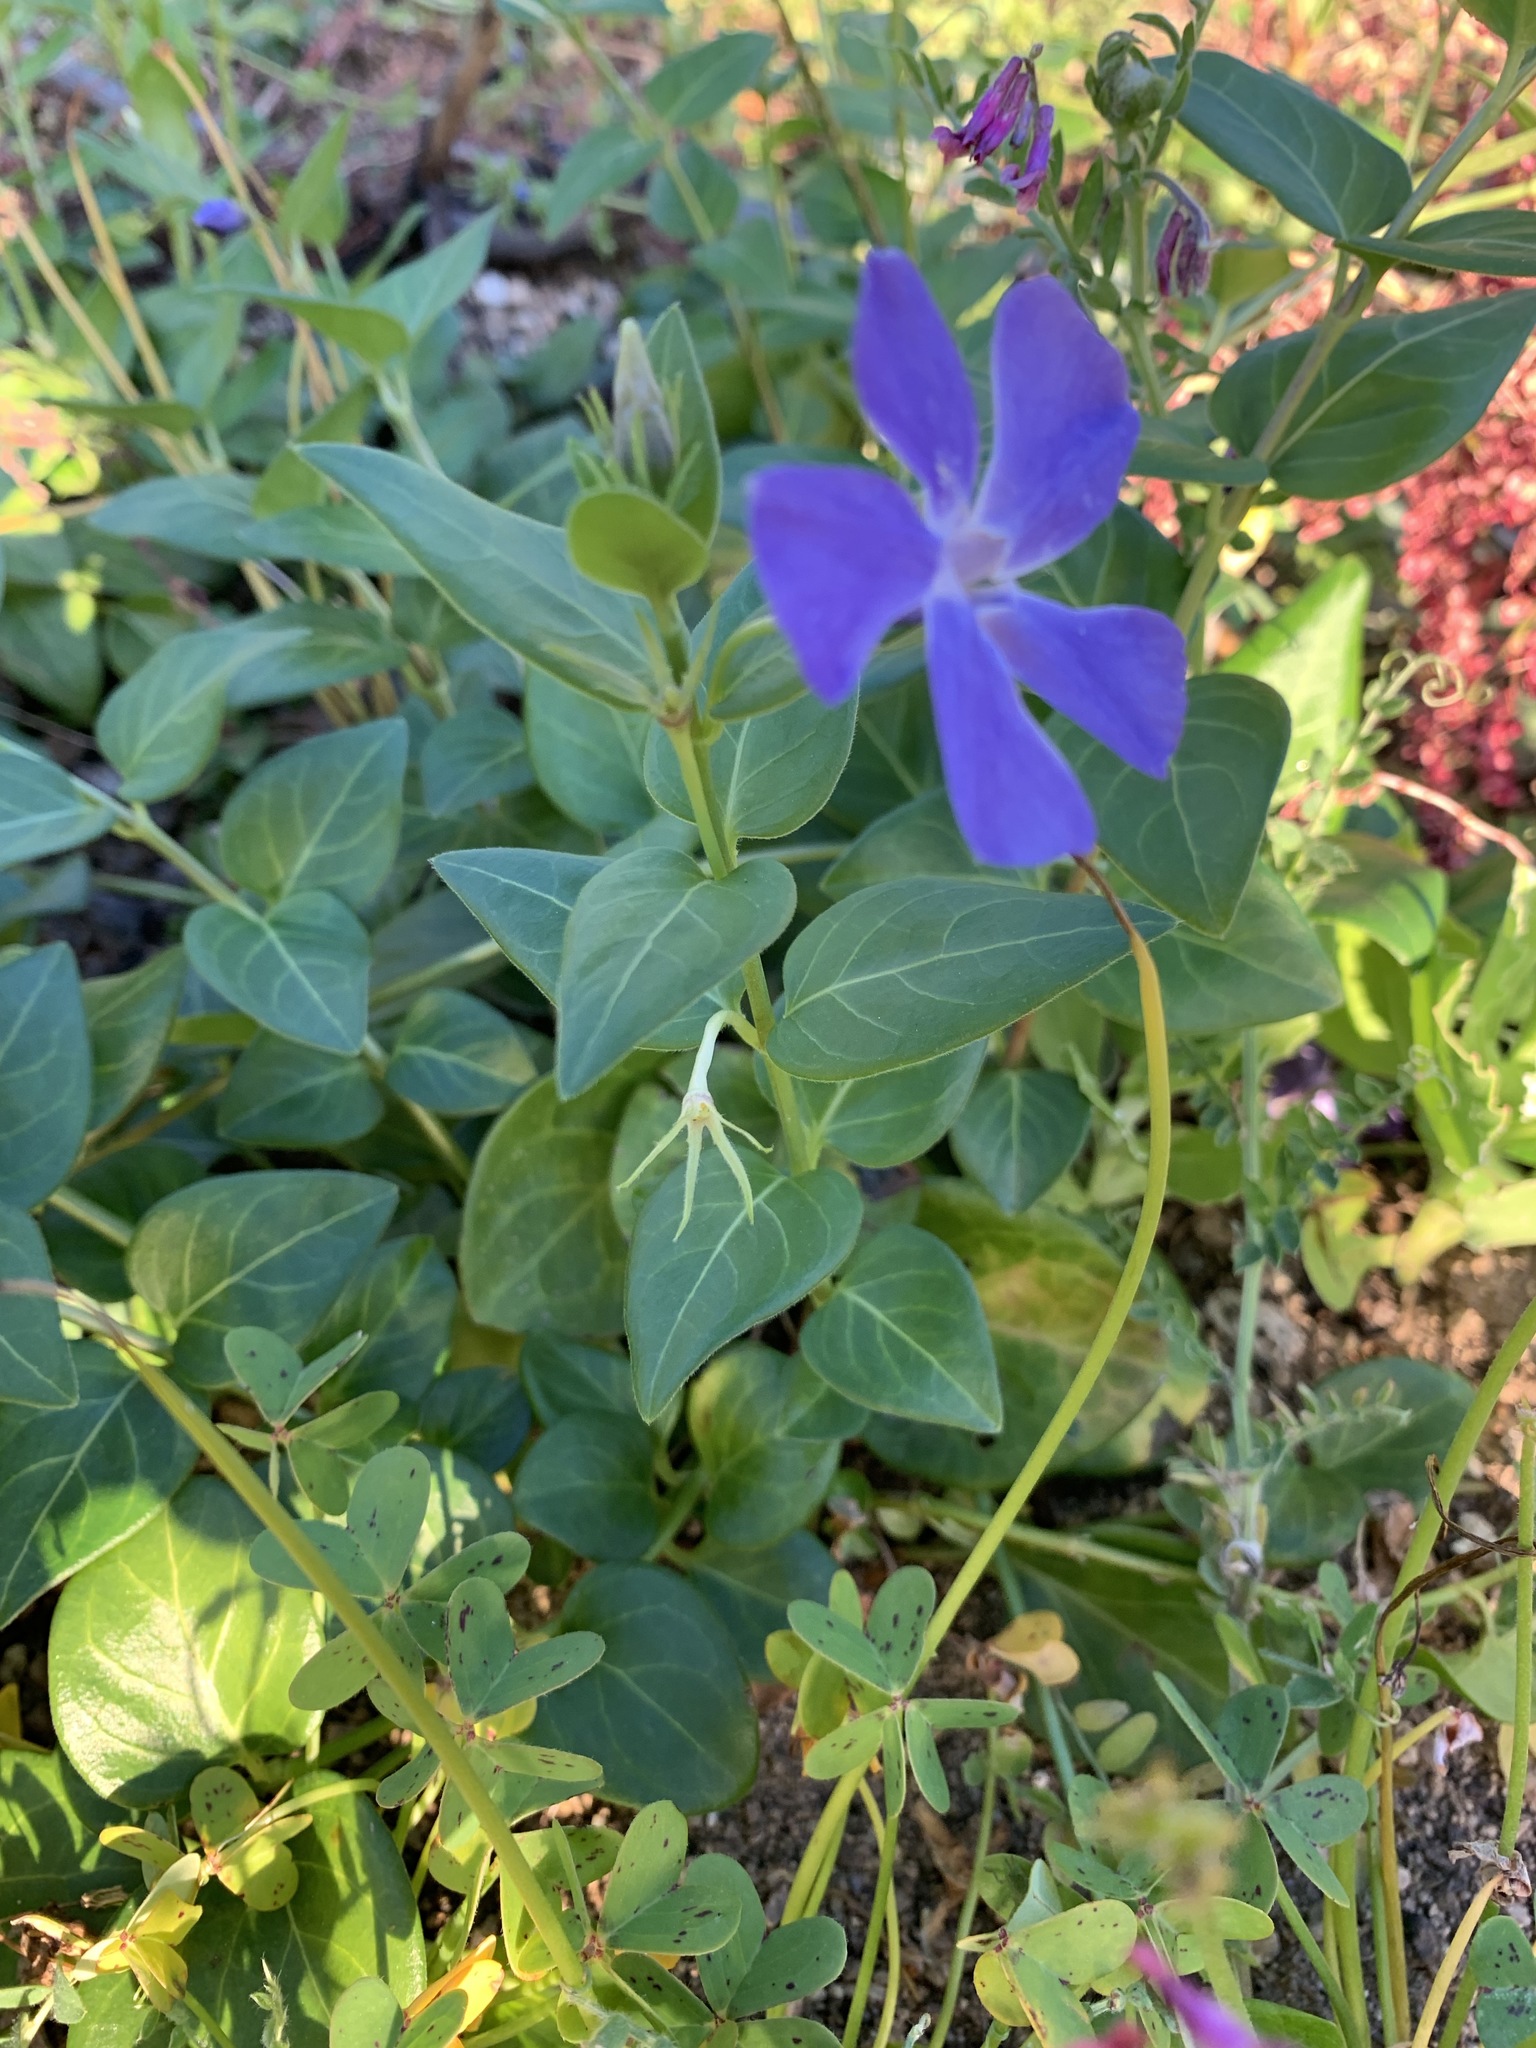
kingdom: Plantae
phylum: Tracheophyta
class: Magnoliopsida
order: Gentianales
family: Apocynaceae
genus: Vinca
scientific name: Vinca major
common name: Greater periwinkle
